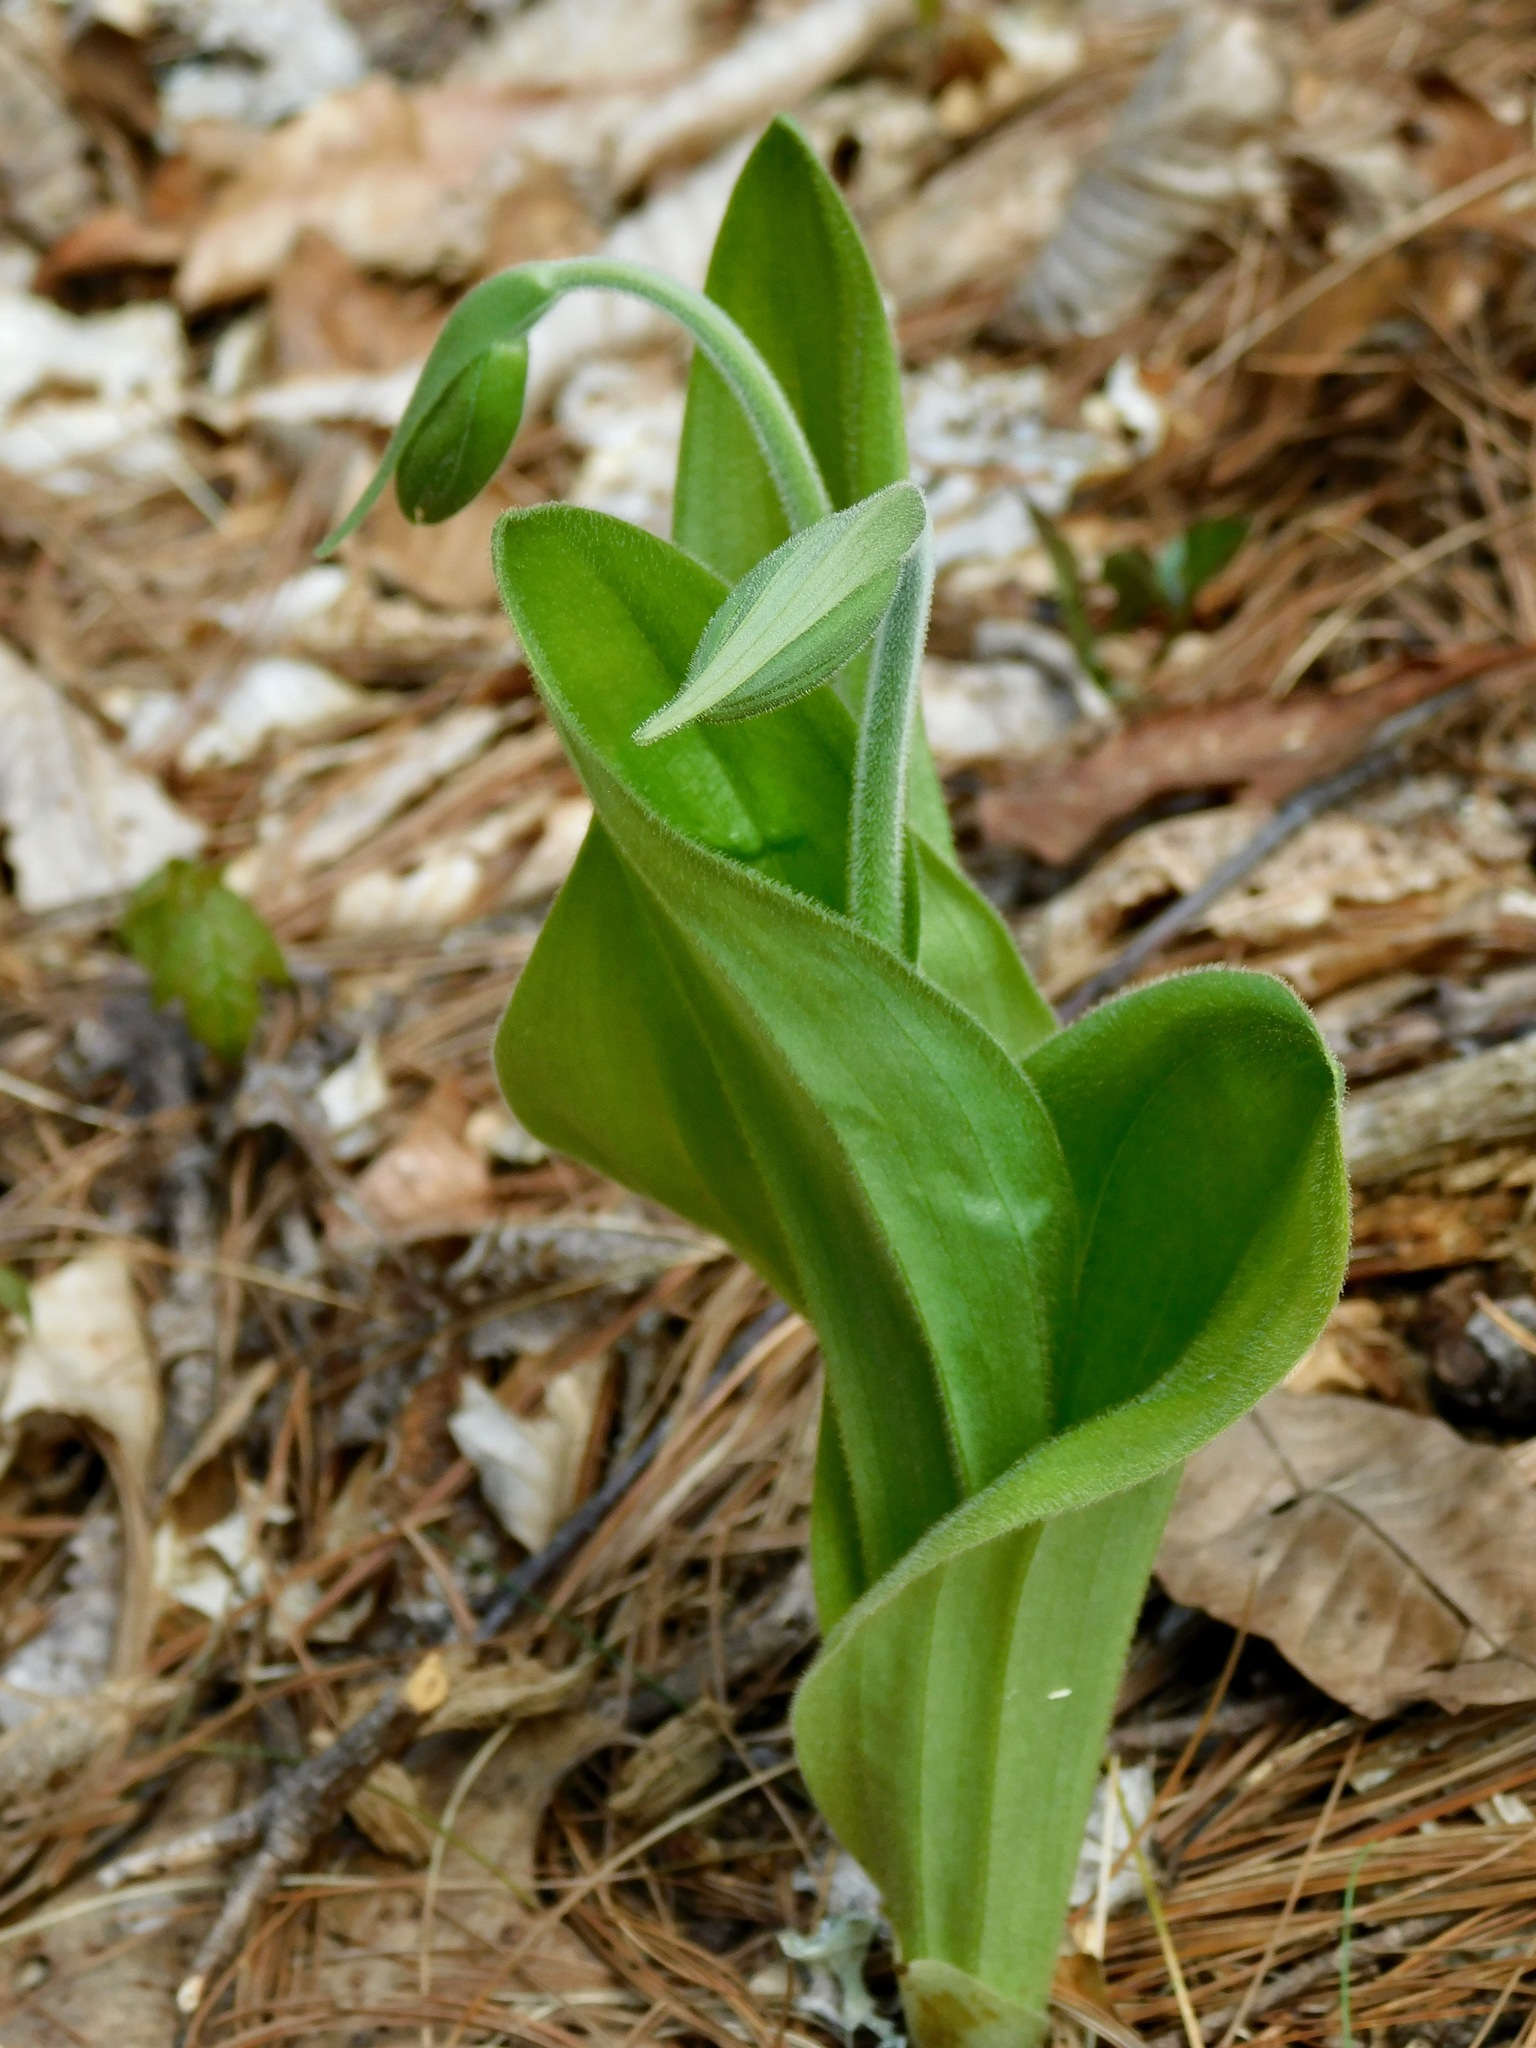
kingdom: Plantae
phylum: Tracheophyta
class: Liliopsida
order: Asparagales
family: Orchidaceae
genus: Cypripedium
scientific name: Cypripedium acaule
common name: Pink lady's-slipper
